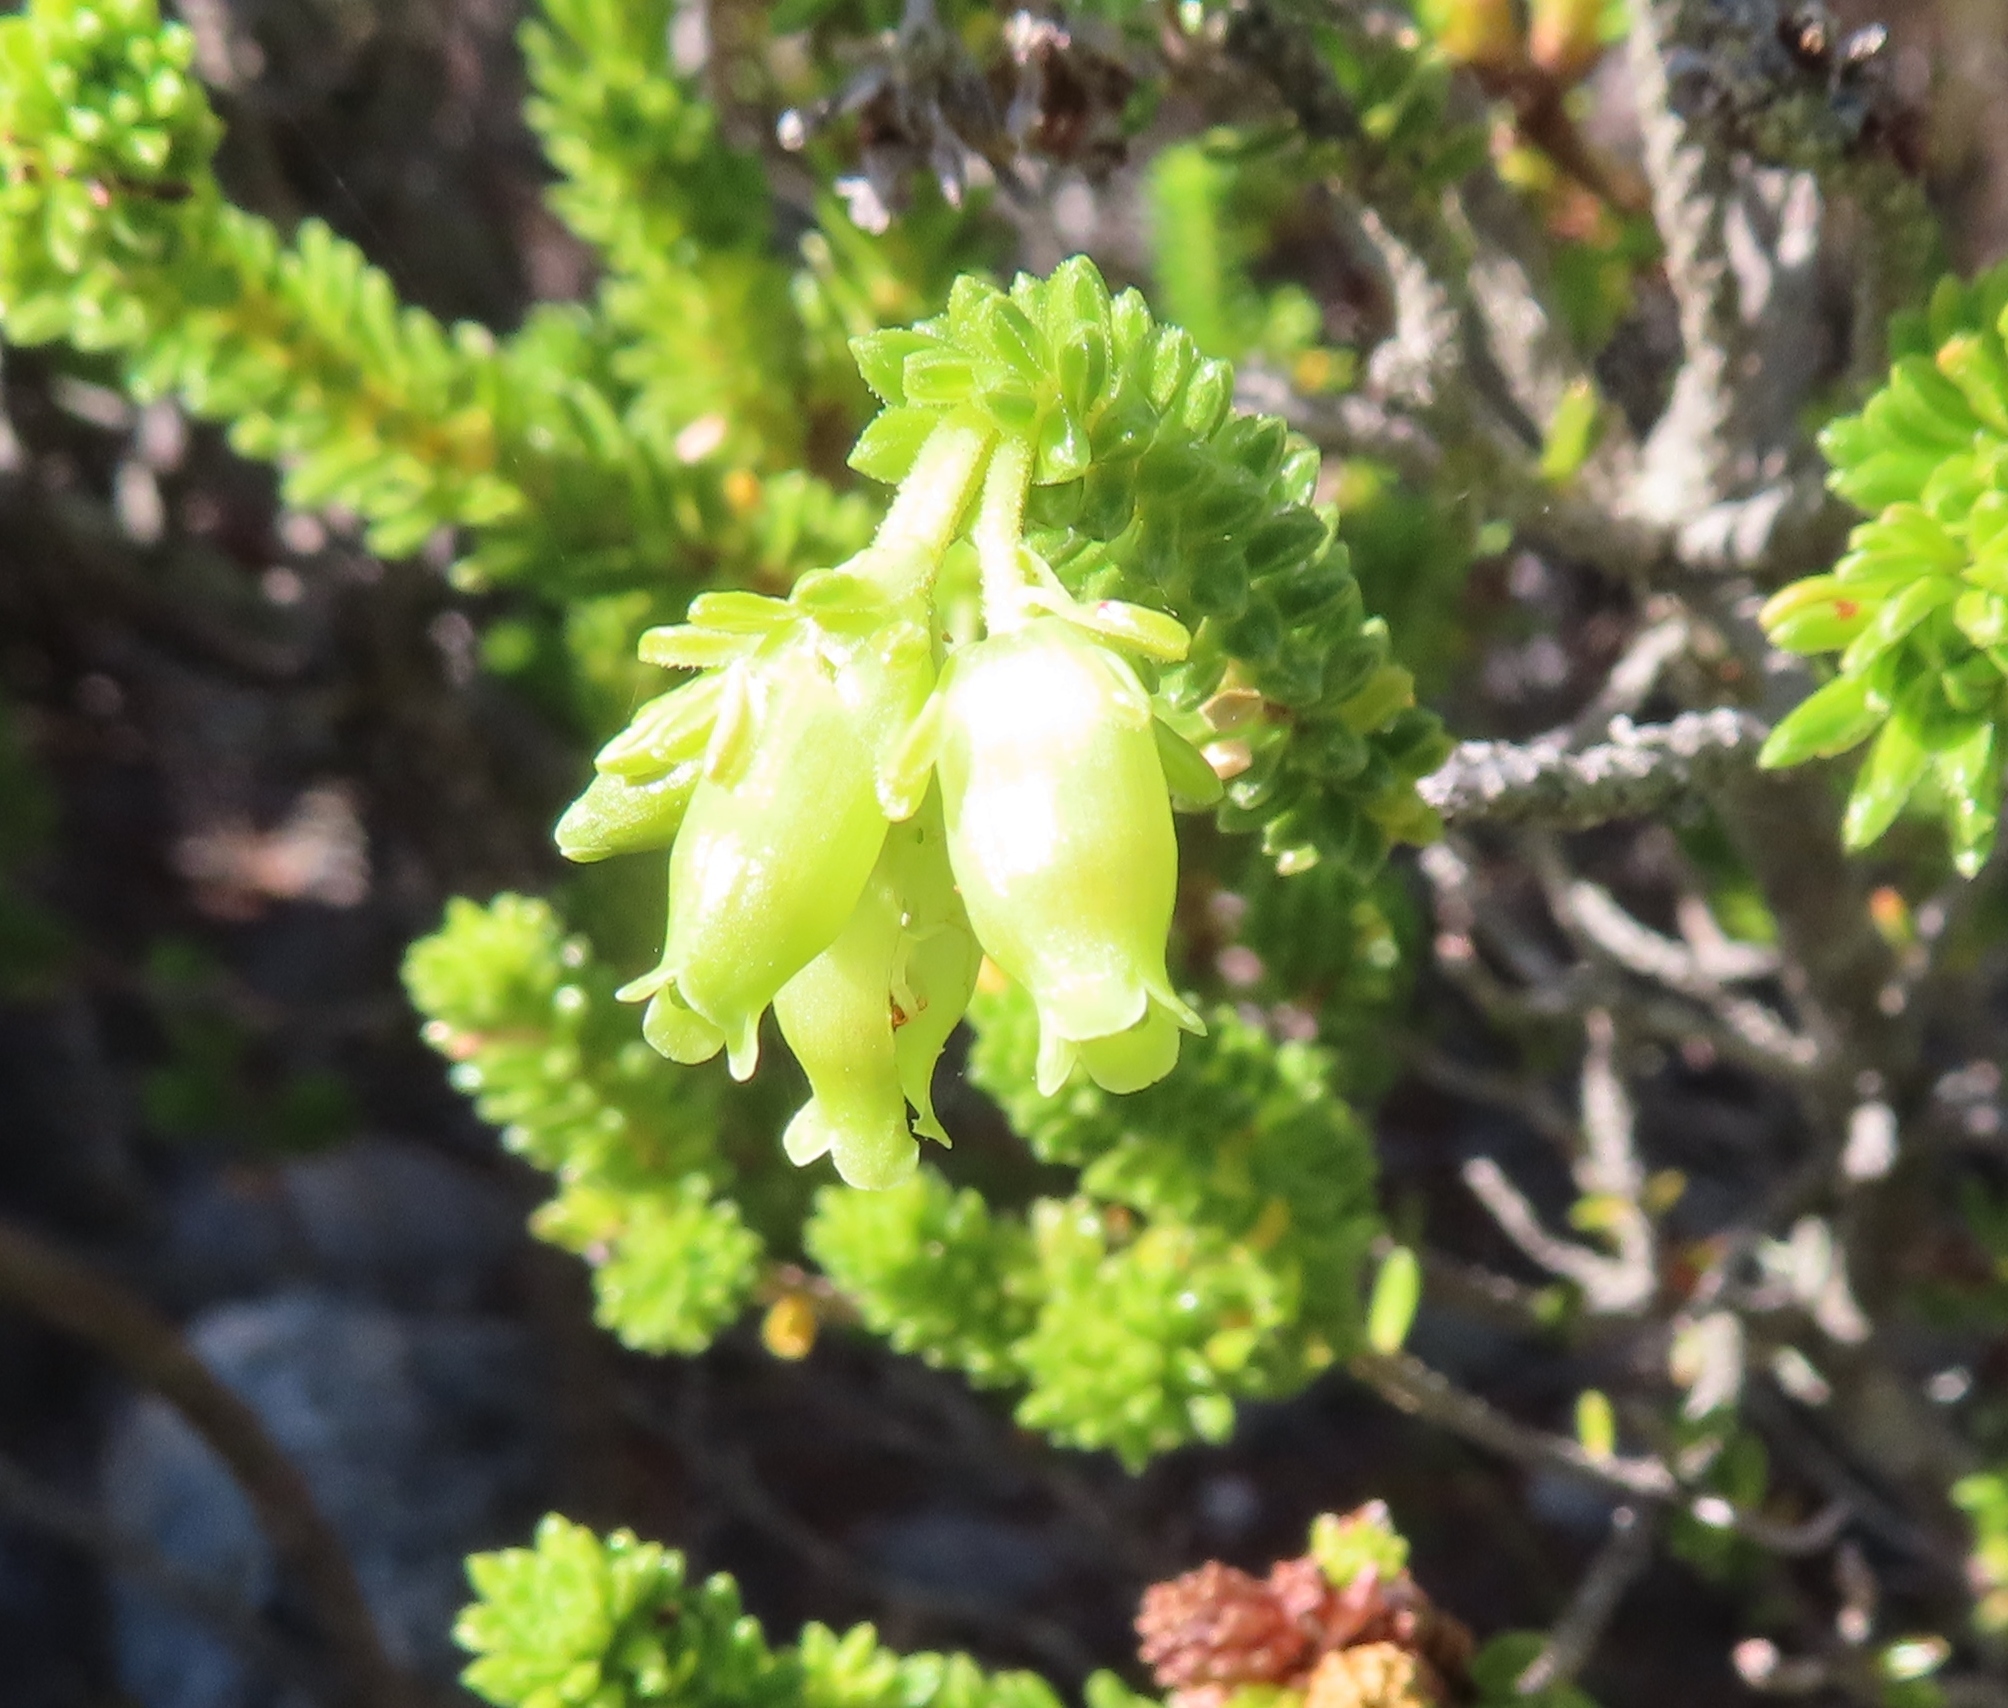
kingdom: Plantae
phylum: Tracheophyta
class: Magnoliopsida
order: Ericales
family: Ericaceae
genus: Erica
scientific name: Erica oblongiflora
